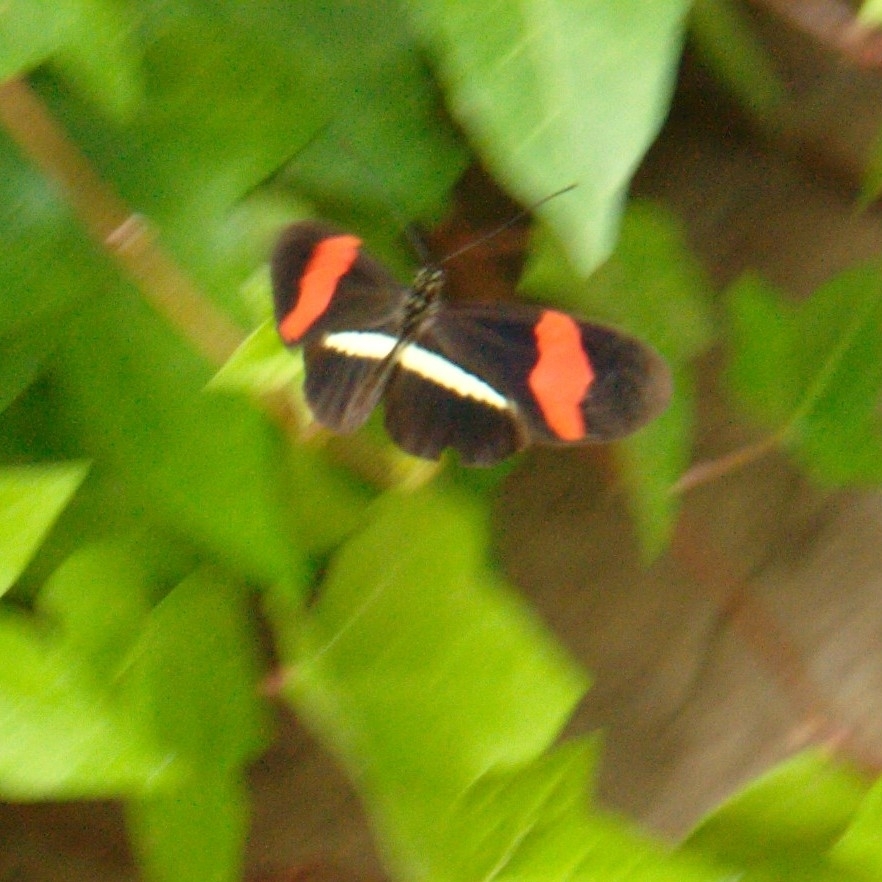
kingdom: Animalia
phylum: Arthropoda
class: Insecta
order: Lepidoptera
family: Nymphalidae
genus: Tirumala
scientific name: Tirumala petiverana
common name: Blue monarch
